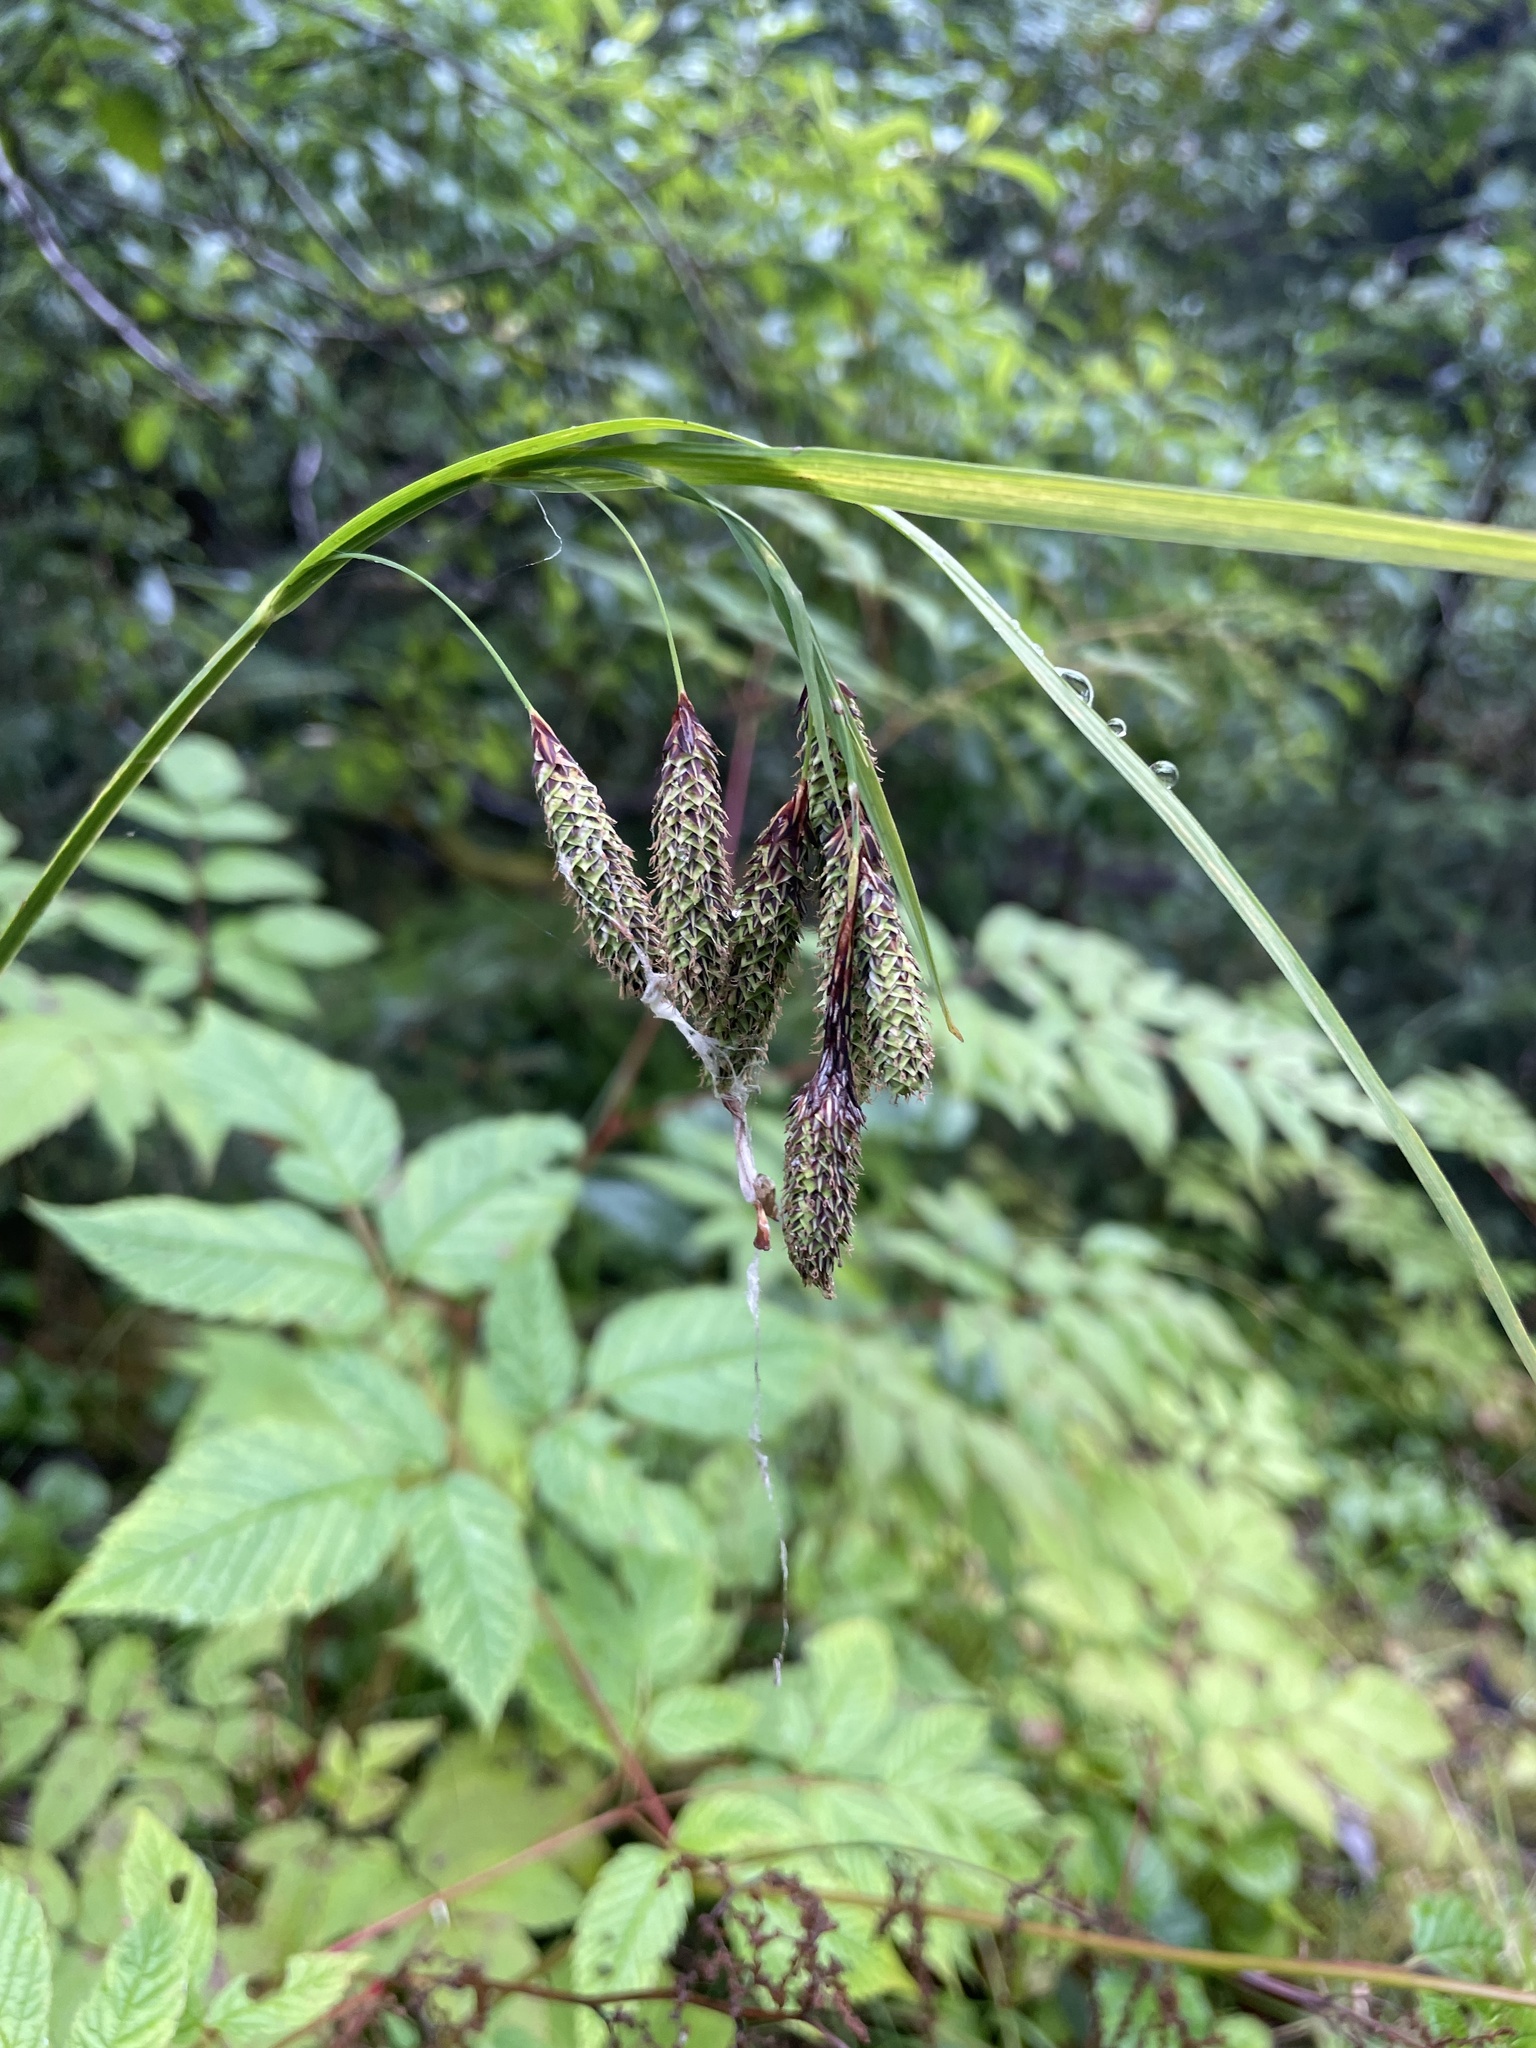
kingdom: Plantae
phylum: Tracheophyta
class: Liliopsida
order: Poales
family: Cyperaceae
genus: Carex
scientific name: Carex mertensii
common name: Mertens' sedge
